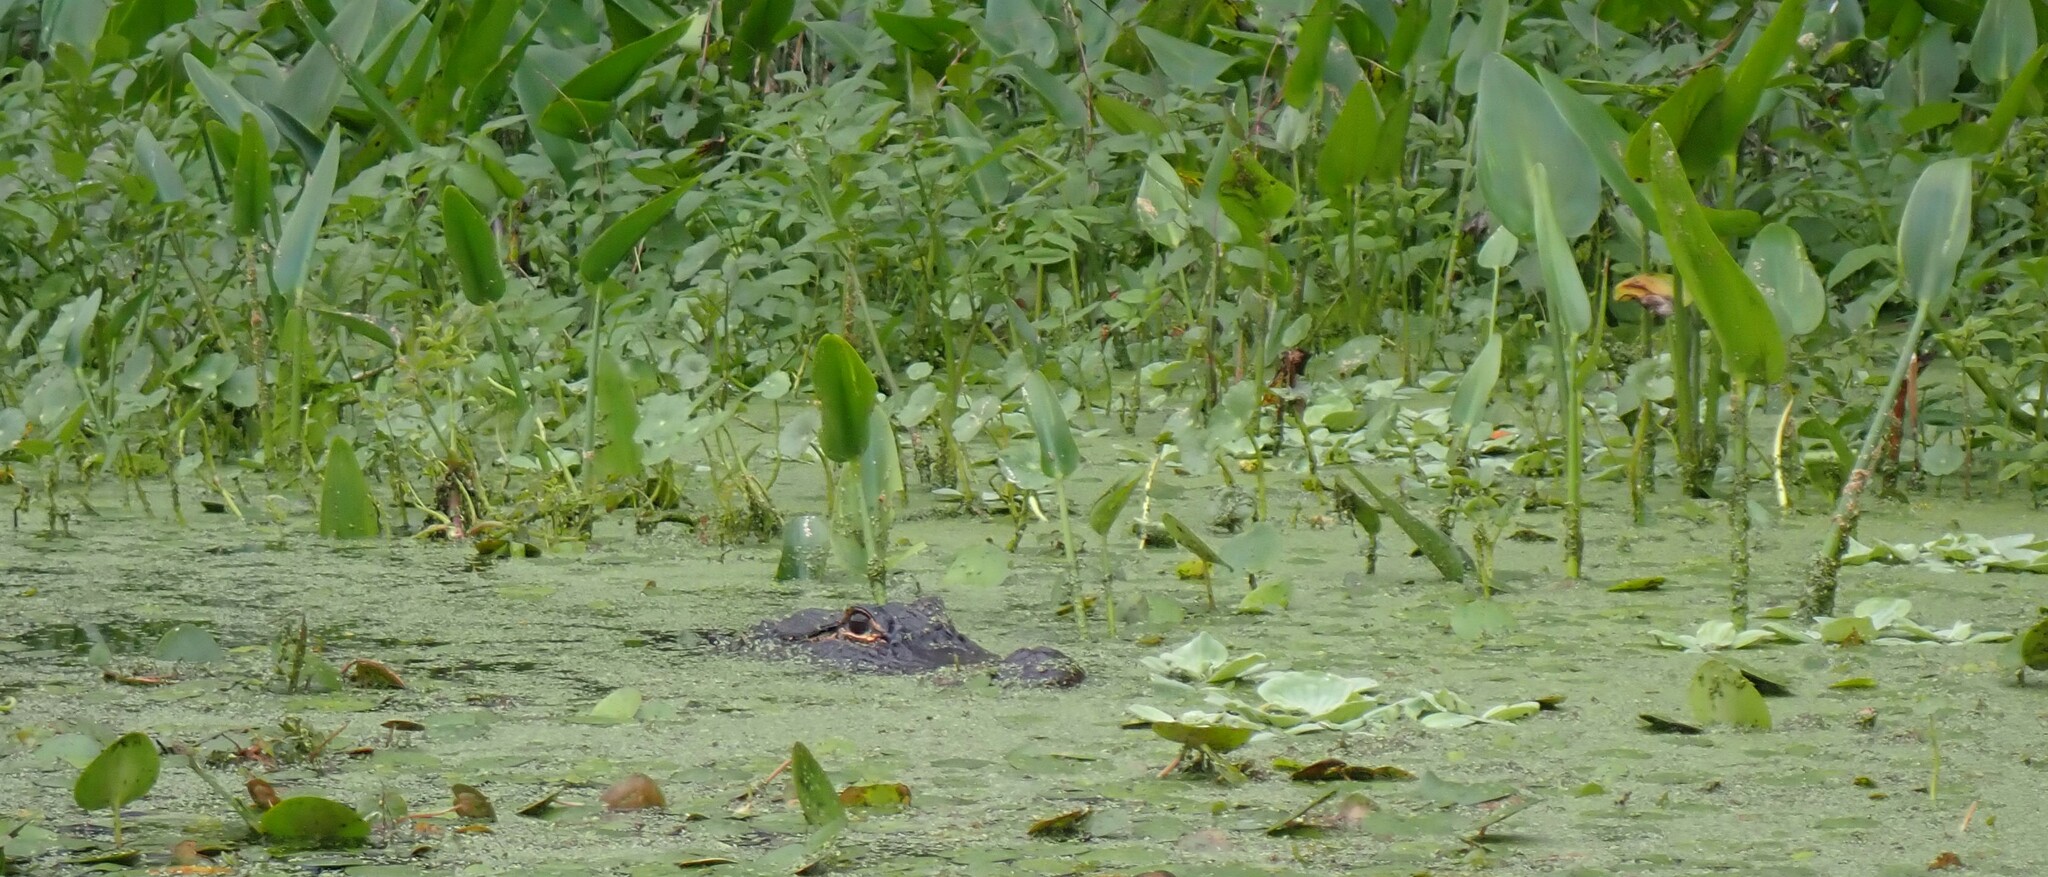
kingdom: Animalia
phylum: Chordata
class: Crocodylia
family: Alligatoridae
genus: Alligator
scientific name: Alligator mississippiensis
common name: American alligator
